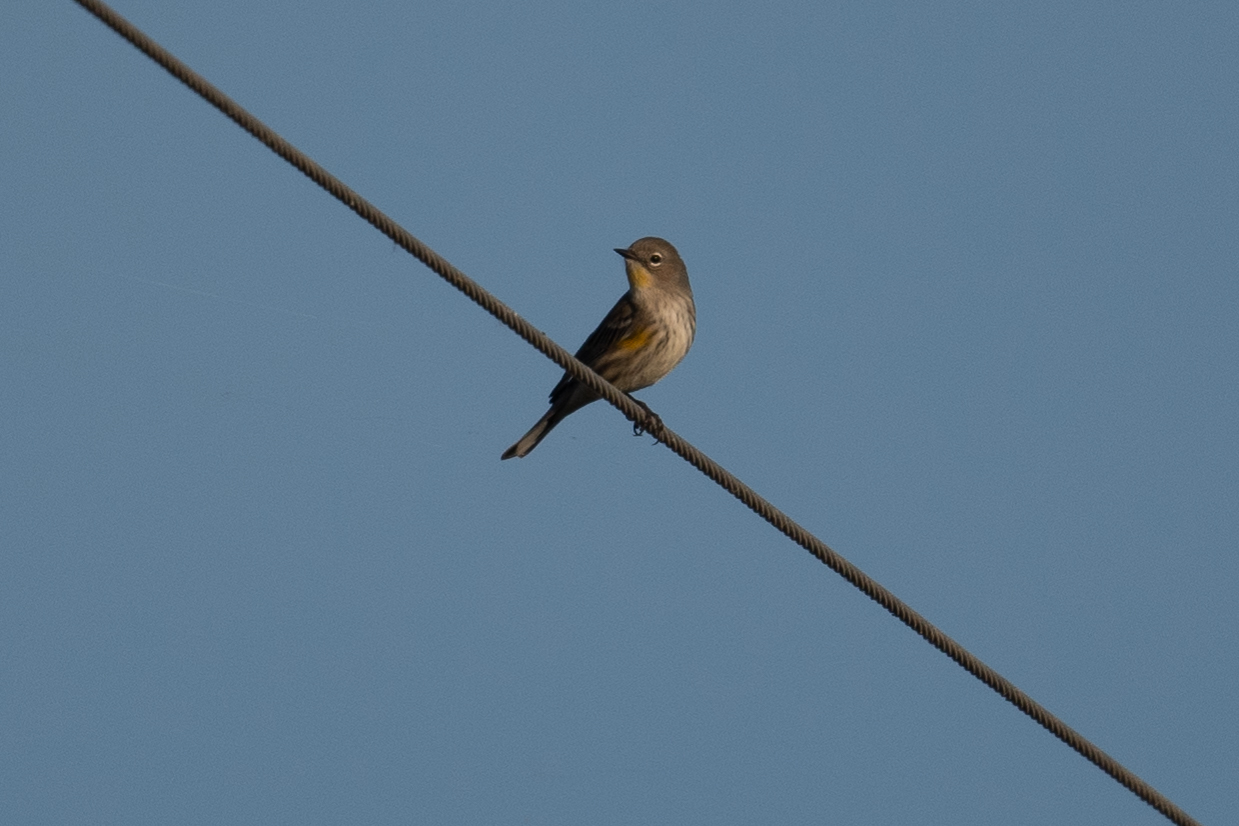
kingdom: Animalia
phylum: Chordata
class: Aves
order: Passeriformes
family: Parulidae
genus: Setophaga
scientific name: Setophaga coronata
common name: Myrtle warbler
